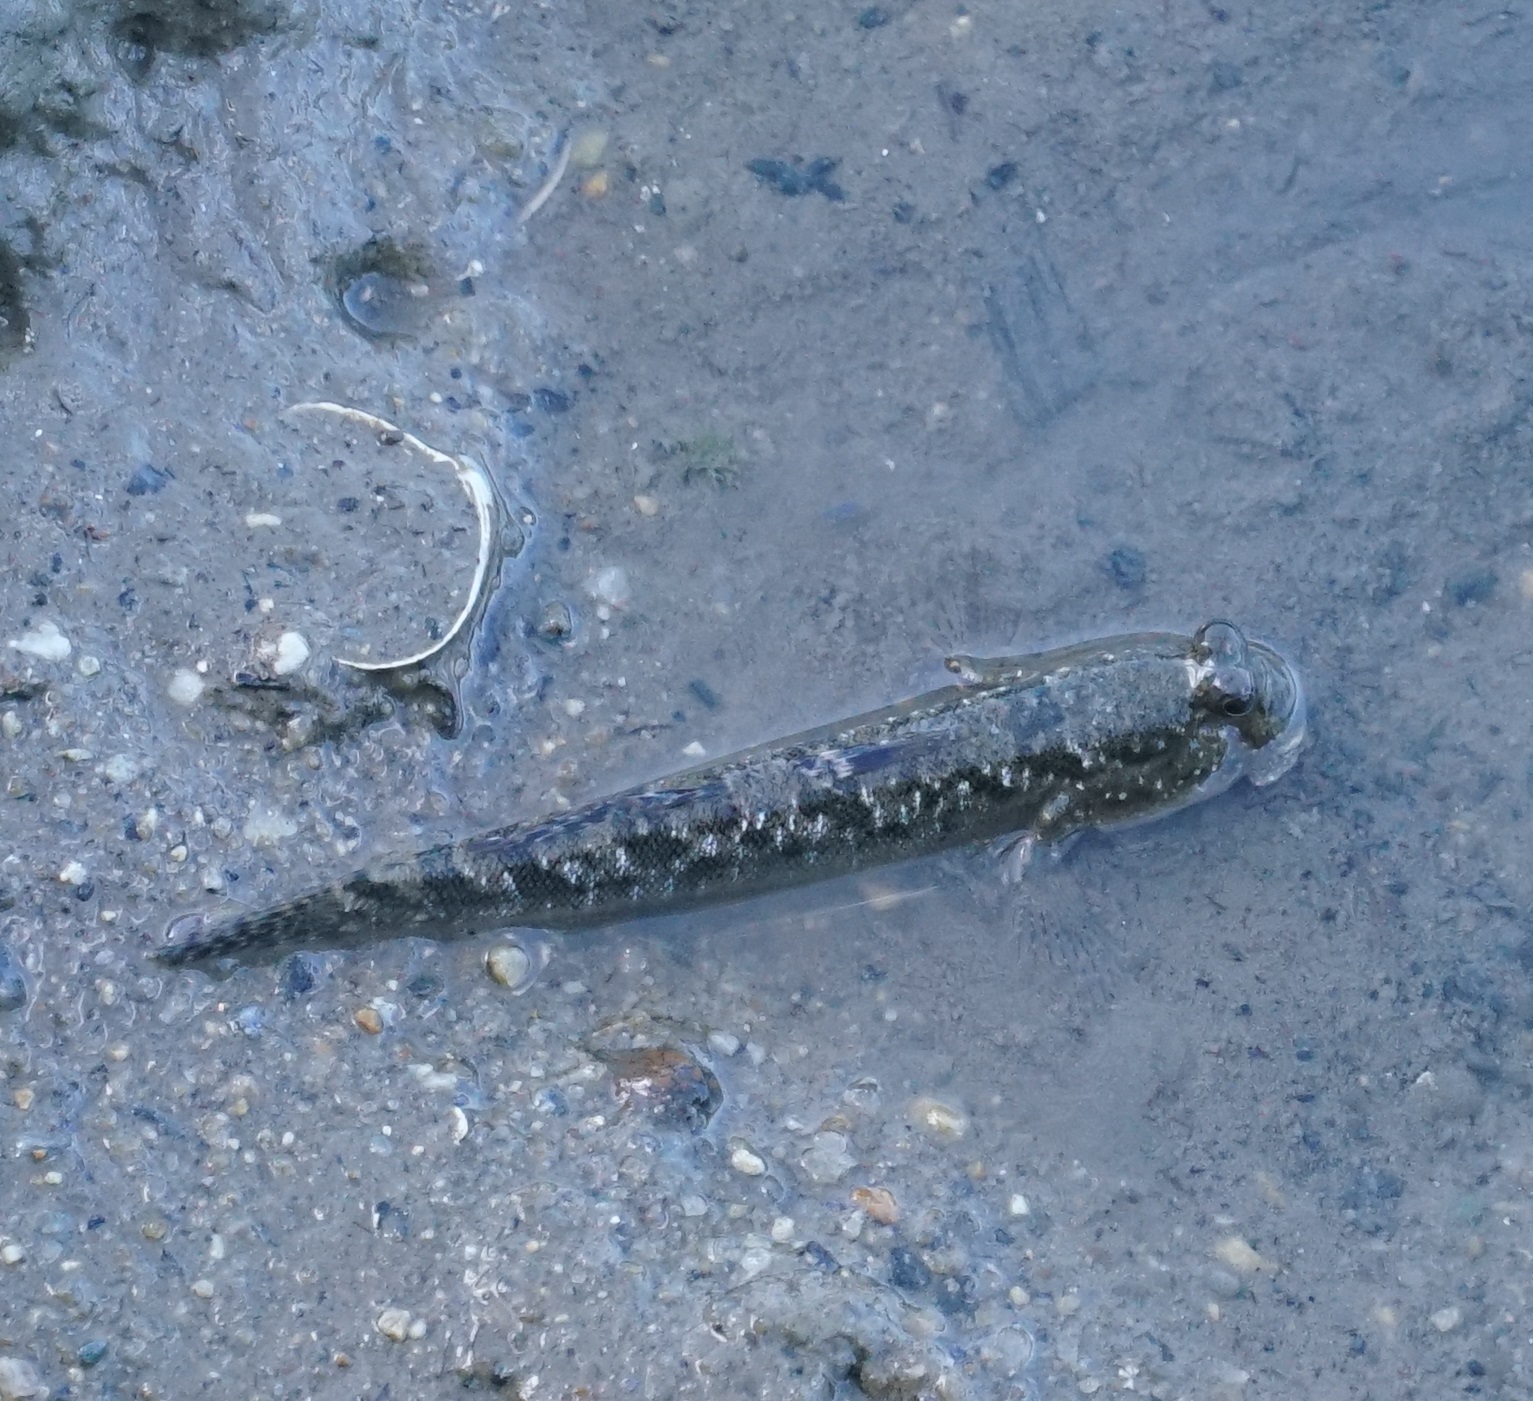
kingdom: Animalia
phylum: Chordata
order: Perciformes
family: Gobiidae
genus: Periophthalmus
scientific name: Periophthalmus argentilineatus
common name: Barred mudskipper
